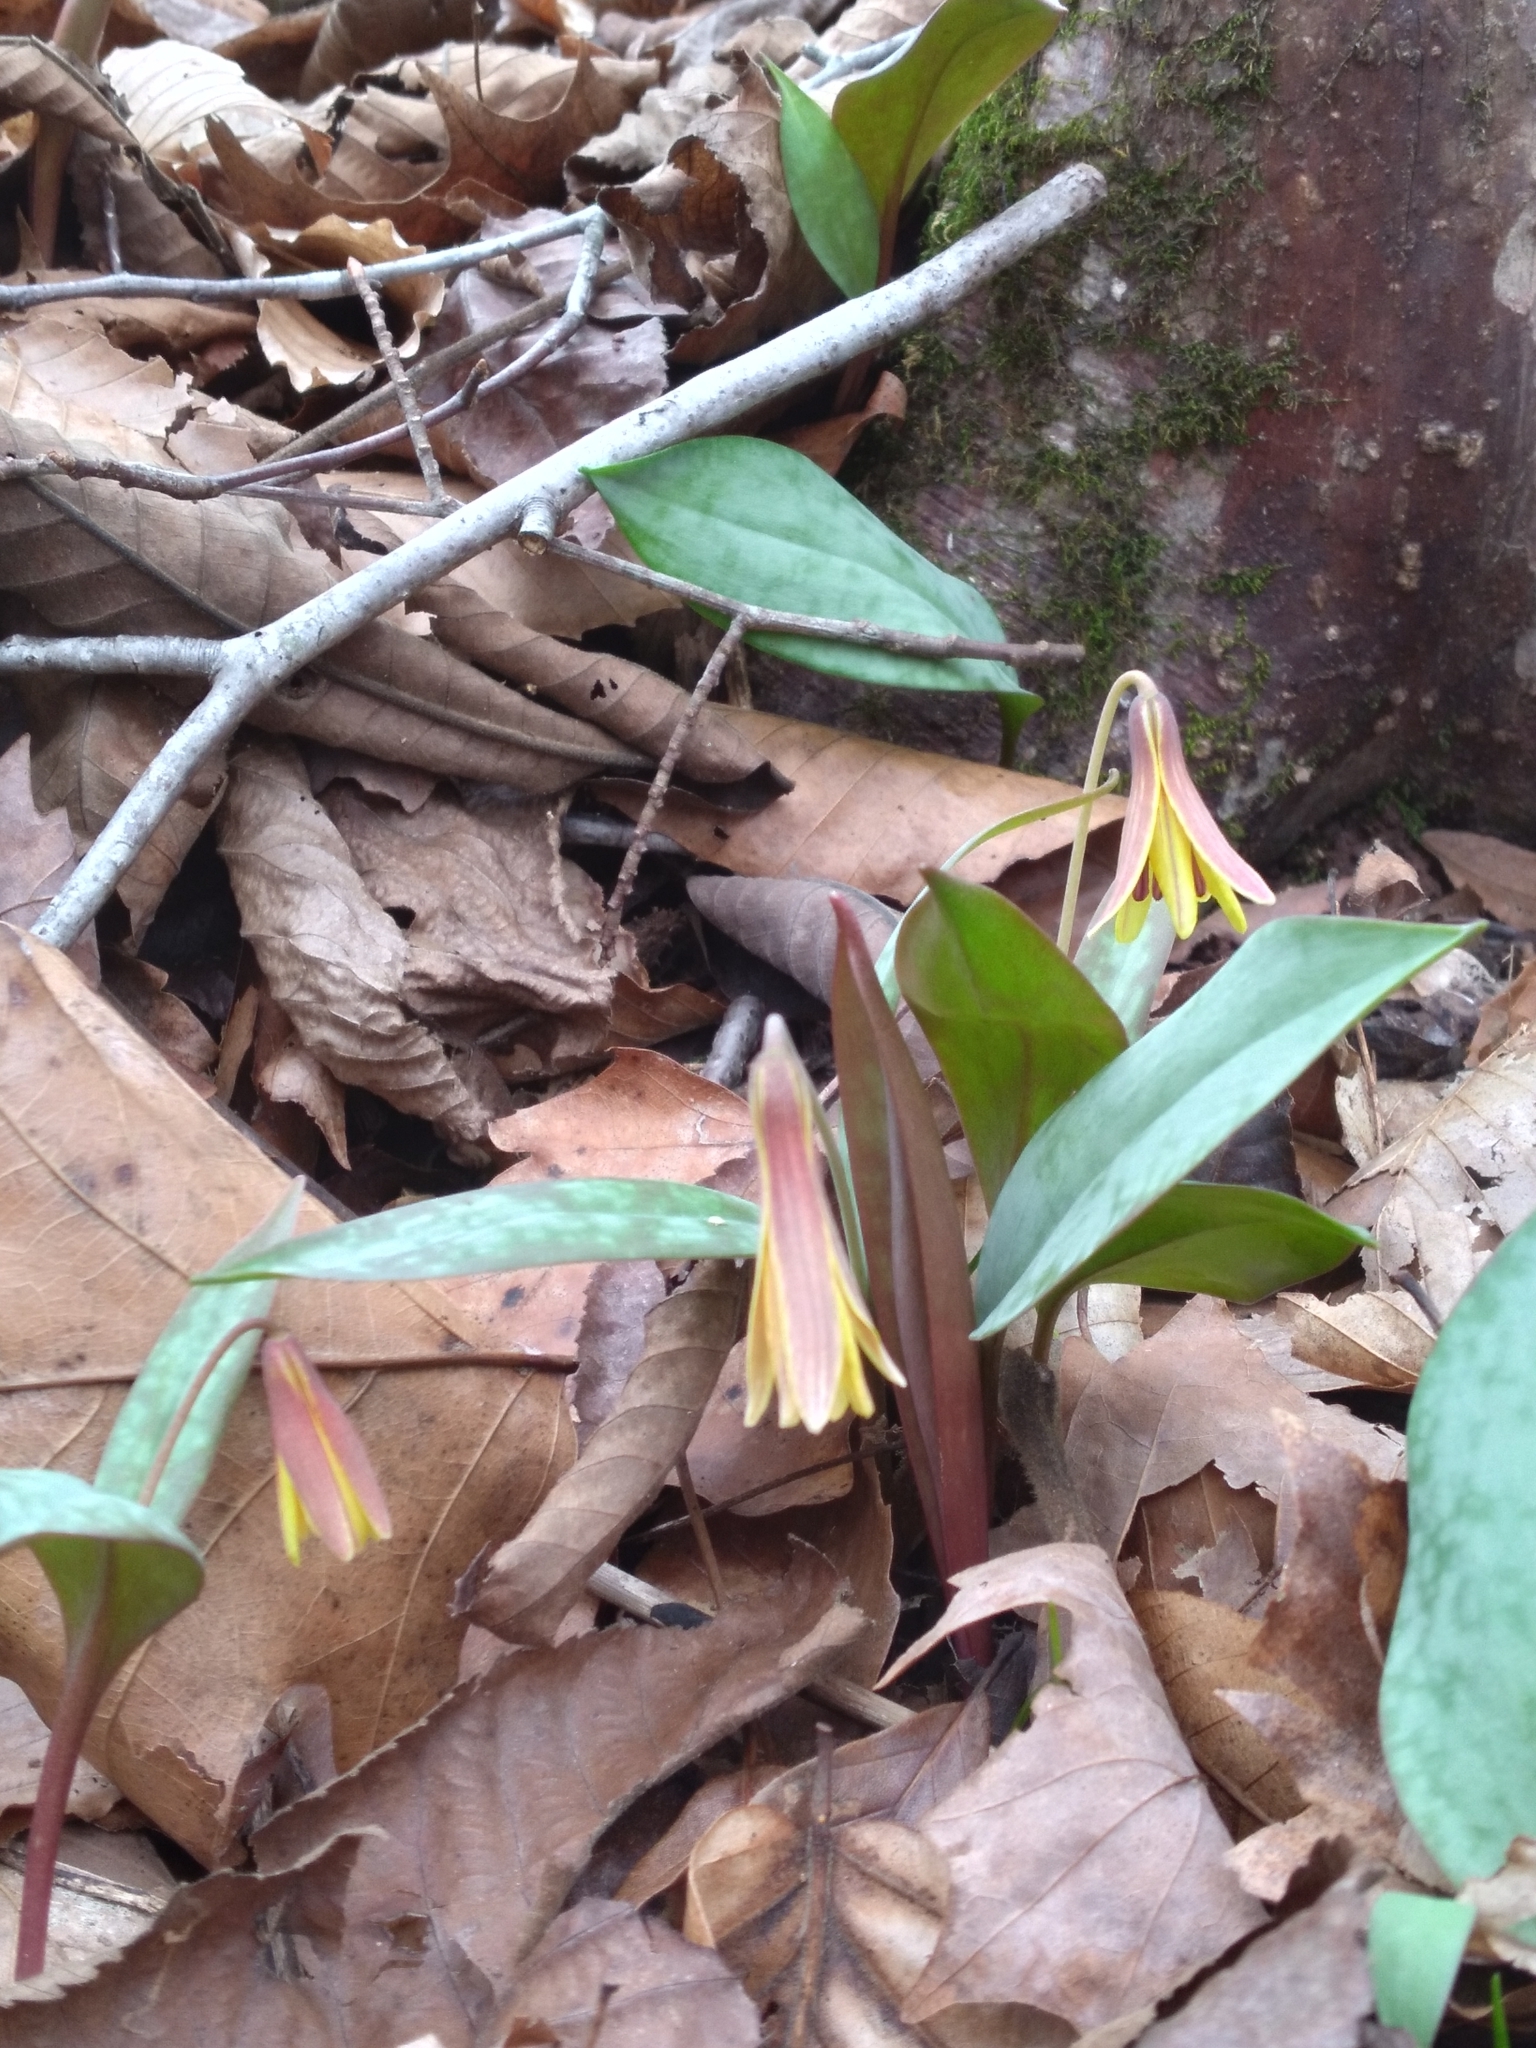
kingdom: Plantae
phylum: Tracheophyta
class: Liliopsida
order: Liliales
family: Liliaceae
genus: Erythronium
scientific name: Erythronium umbilicatum
